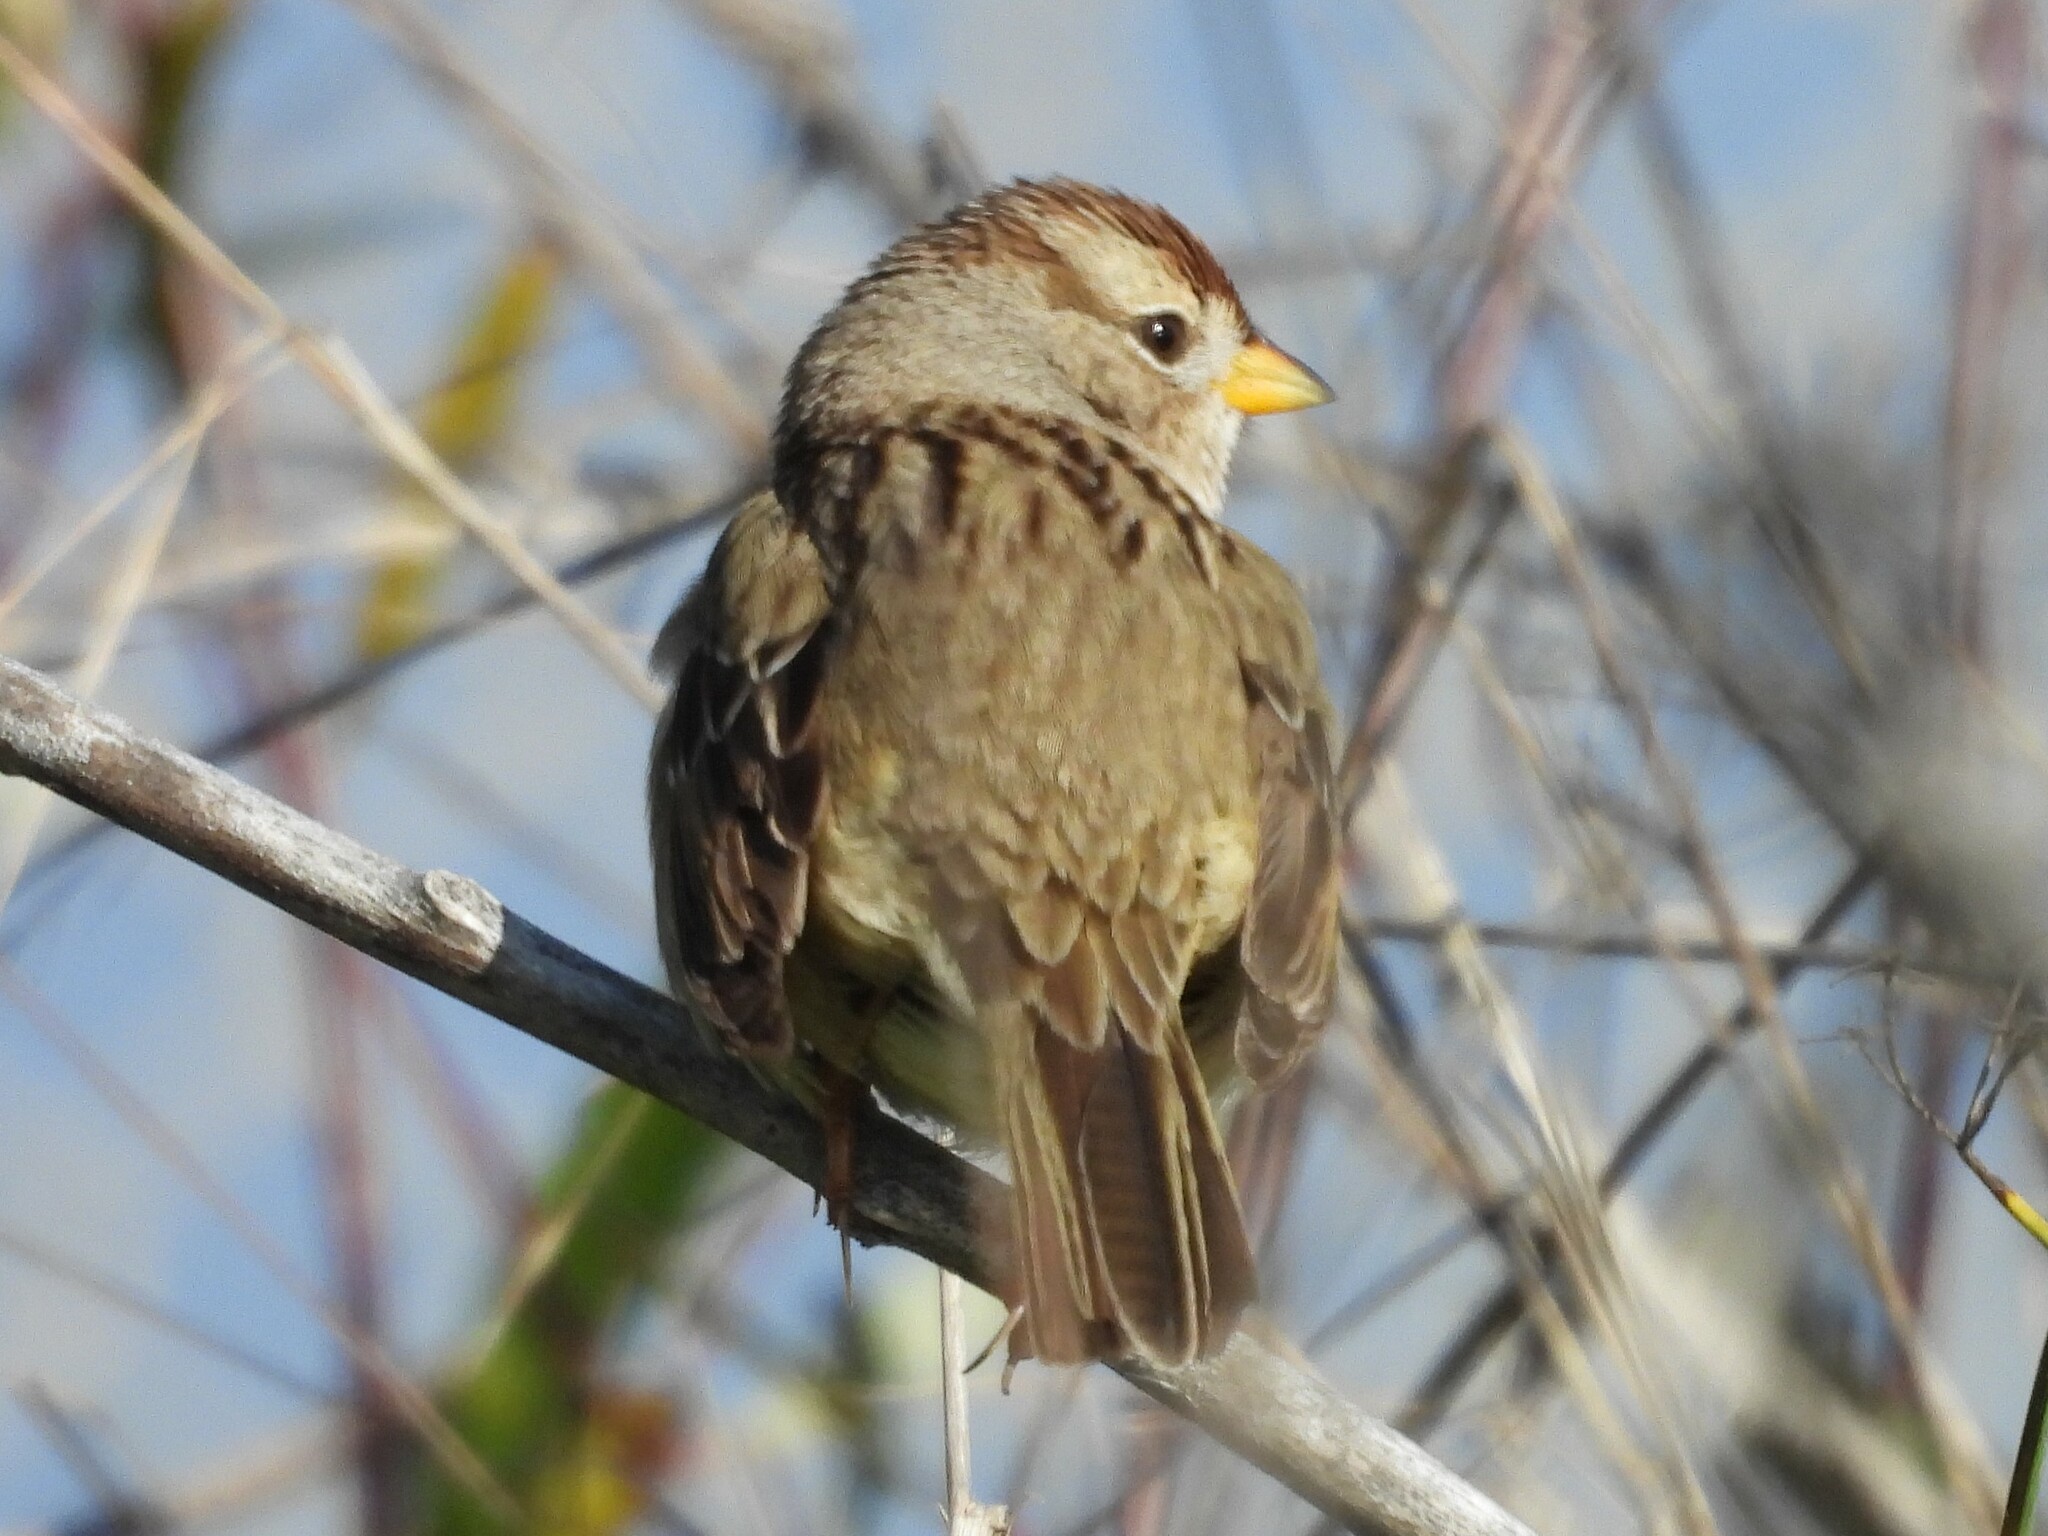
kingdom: Animalia
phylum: Chordata
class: Aves
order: Passeriformes
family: Passerellidae
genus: Zonotrichia
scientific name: Zonotrichia leucophrys
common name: White-crowned sparrow
